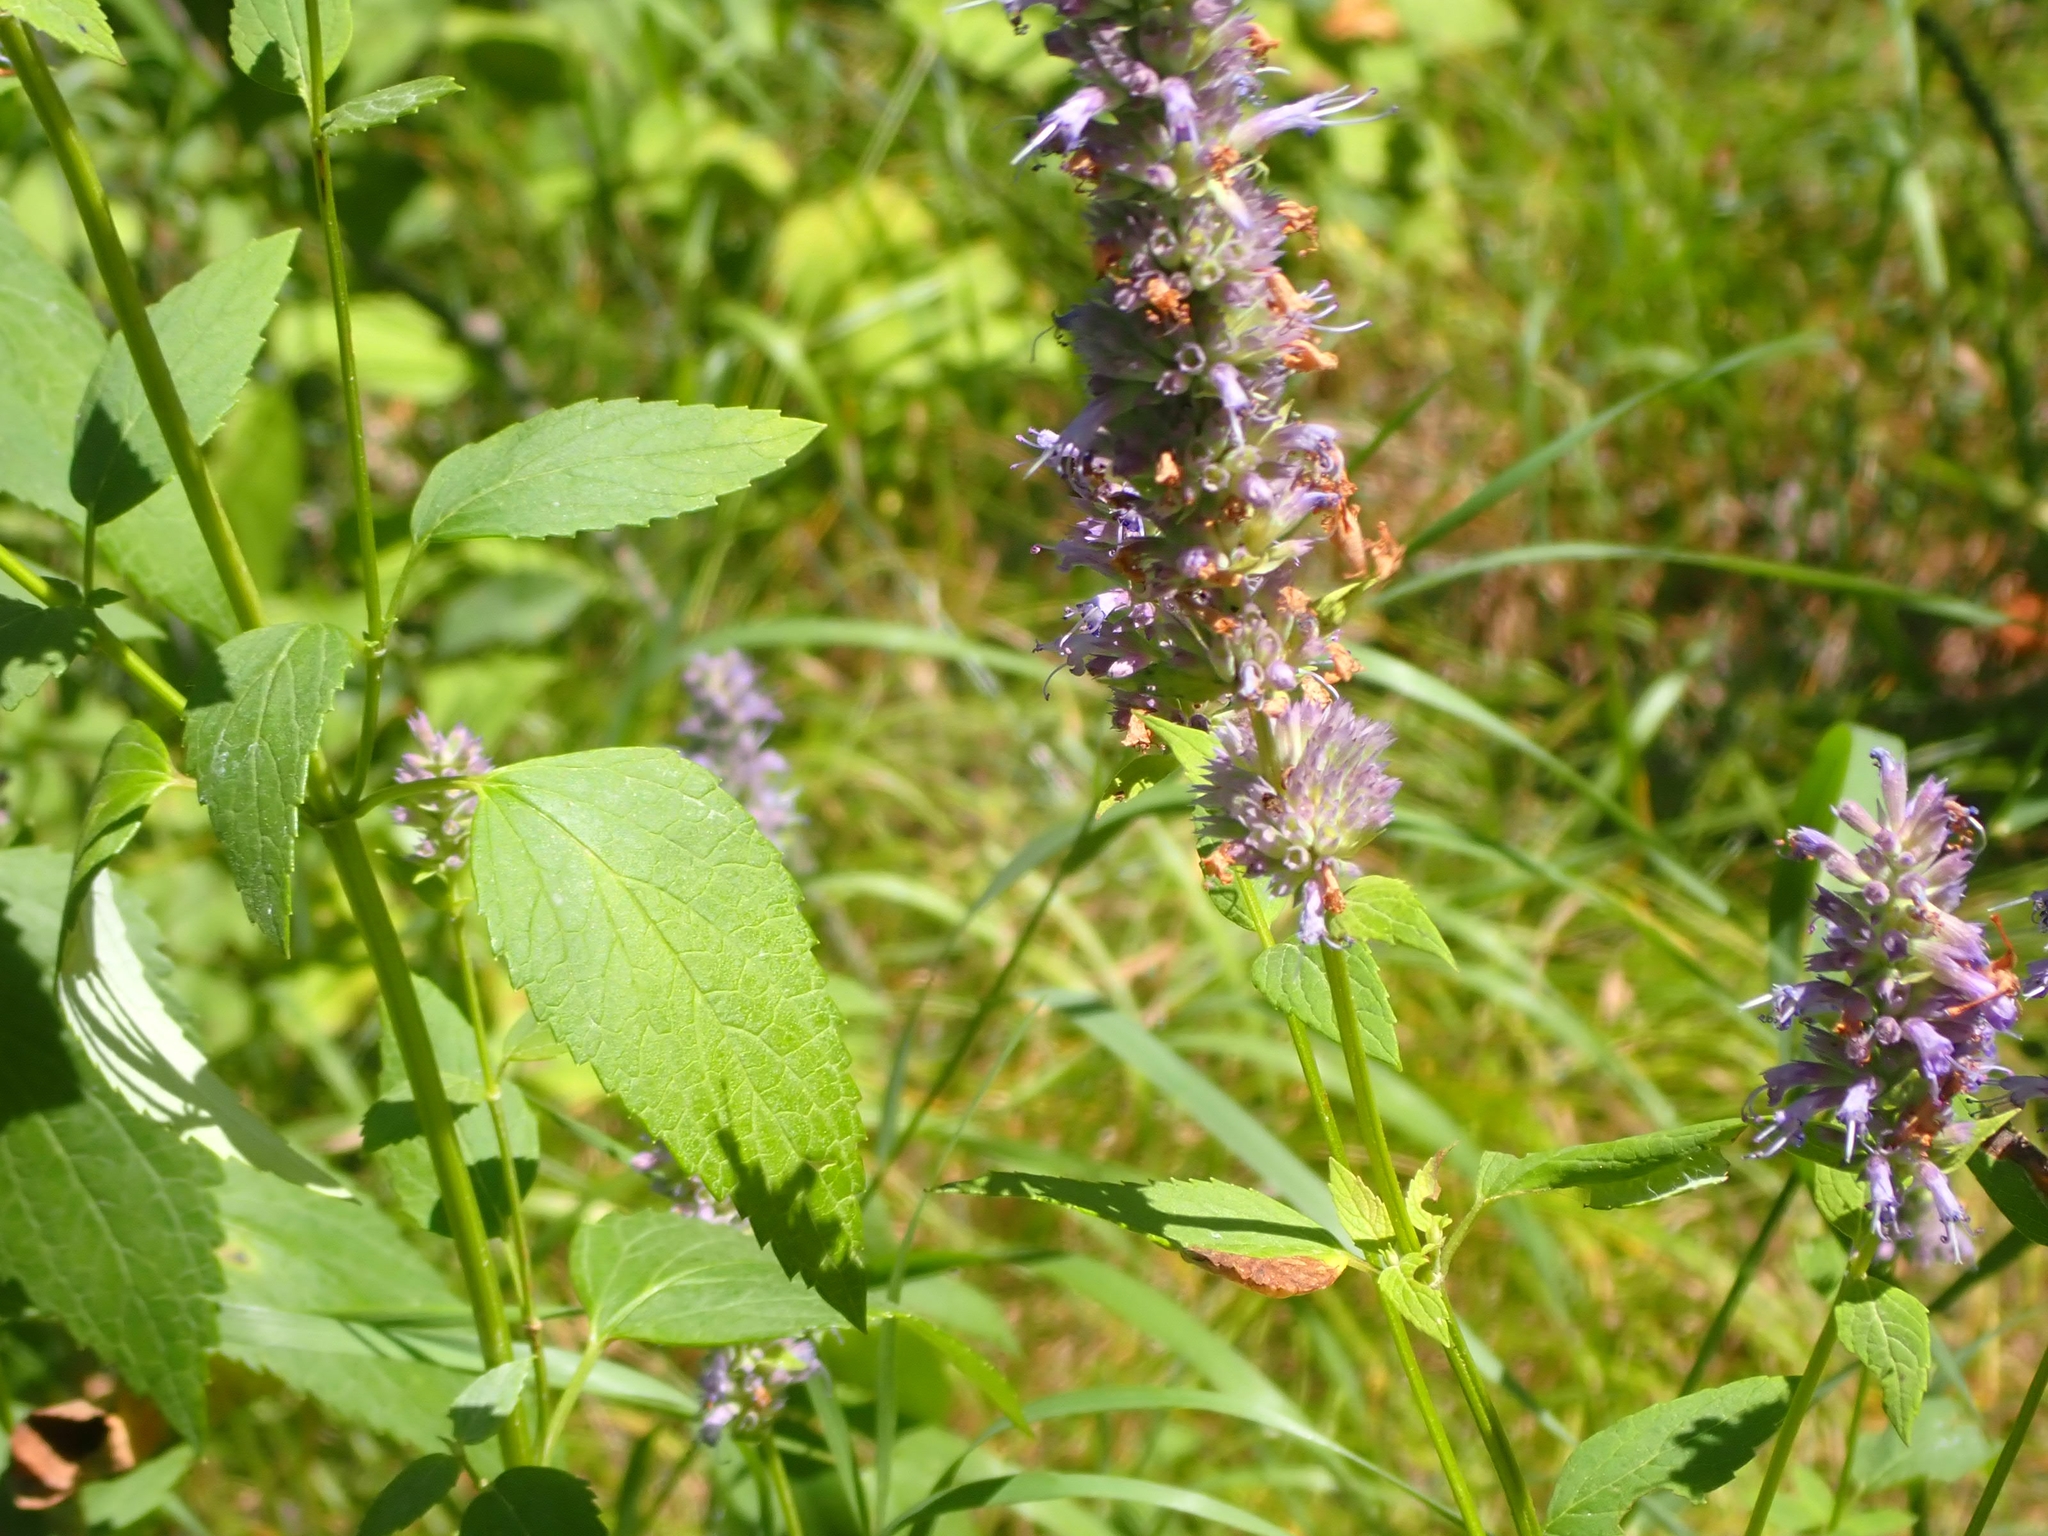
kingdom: Plantae
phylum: Tracheophyta
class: Magnoliopsida
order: Lamiales
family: Lamiaceae
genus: Agastache
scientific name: Agastache foeniculum
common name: Anise hyssop
